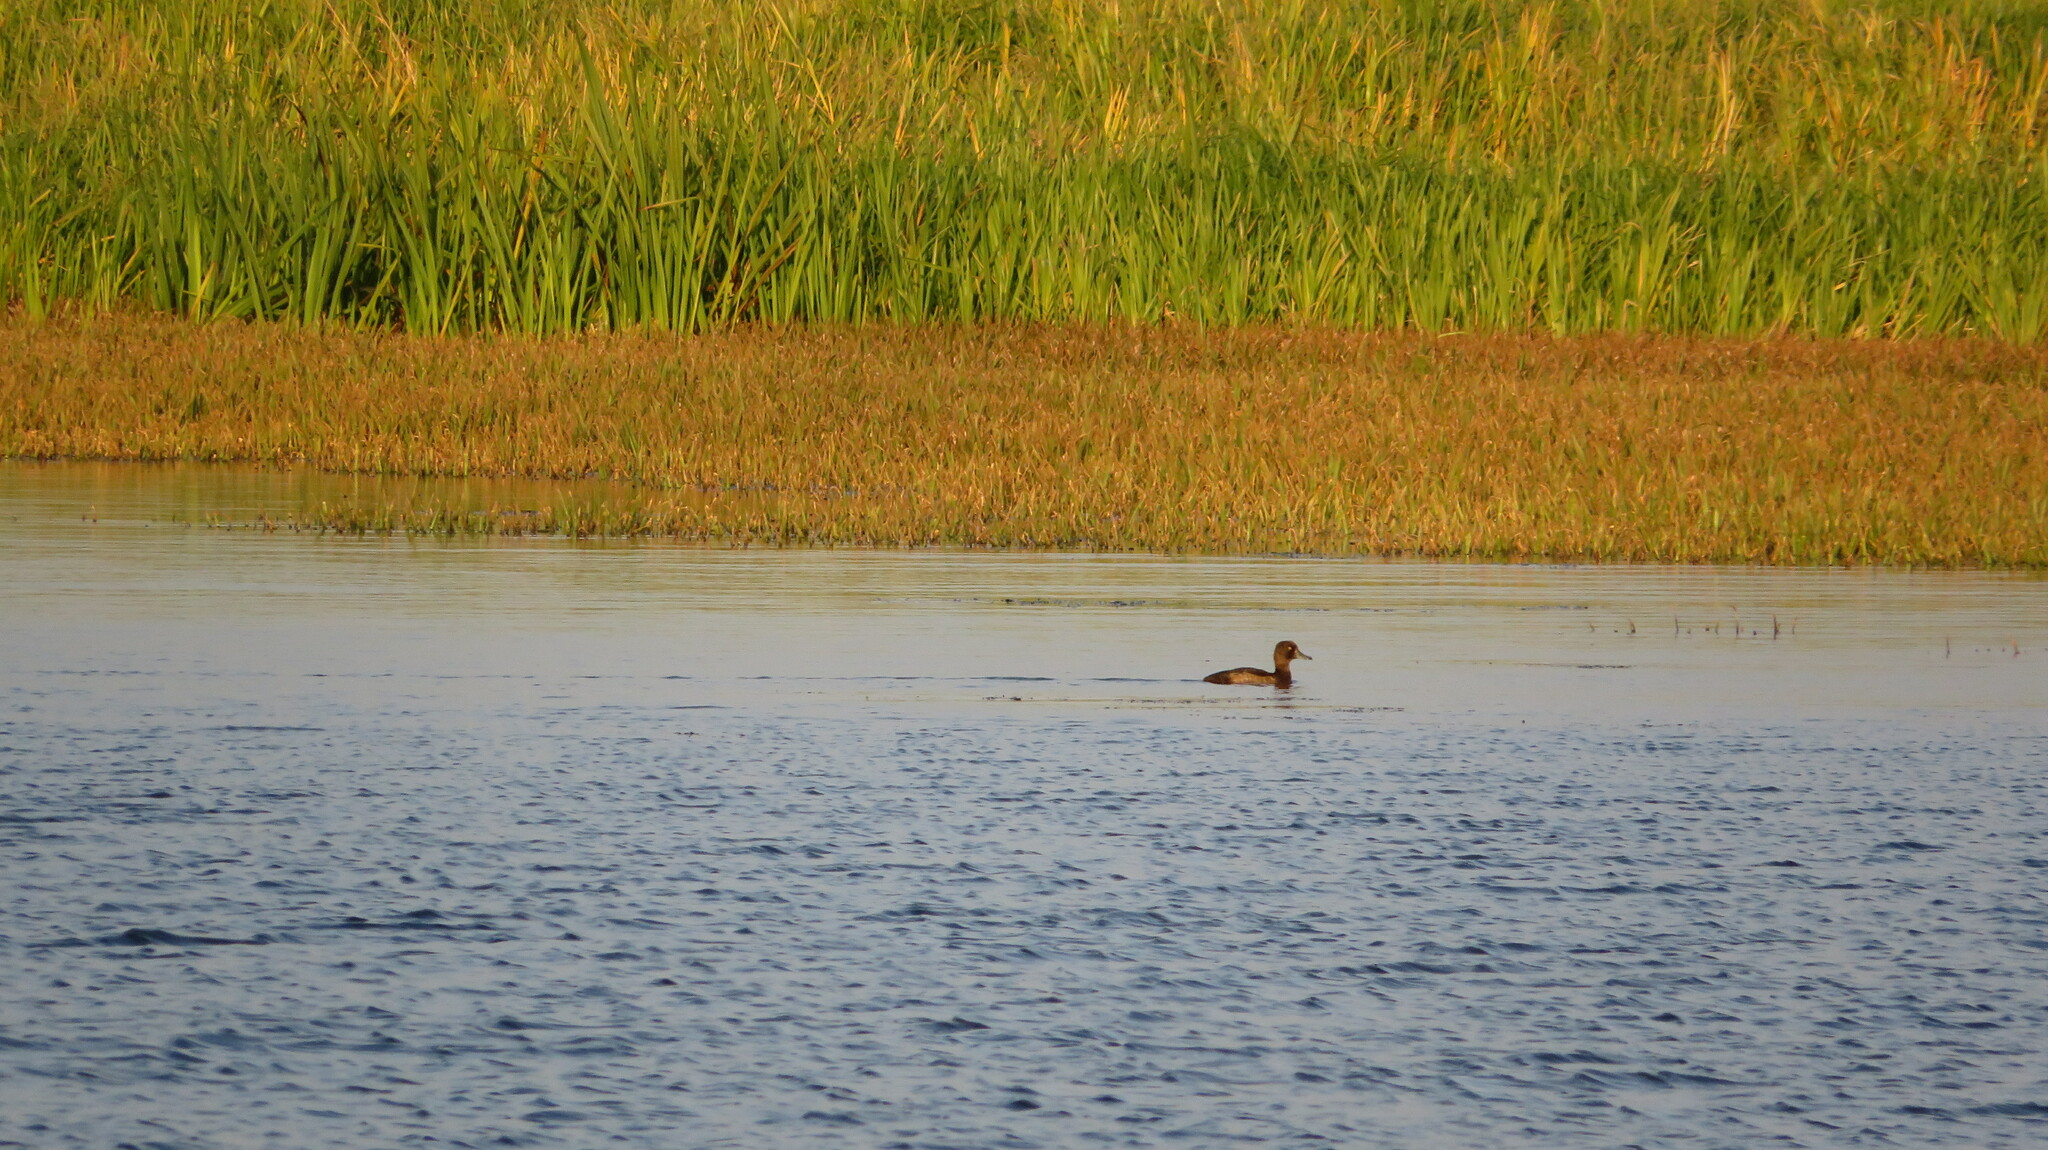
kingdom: Animalia
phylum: Chordata
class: Aves
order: Anseriformes
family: Anatidae
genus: Aythya
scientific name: Aythya fuligula
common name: Tufted duck
